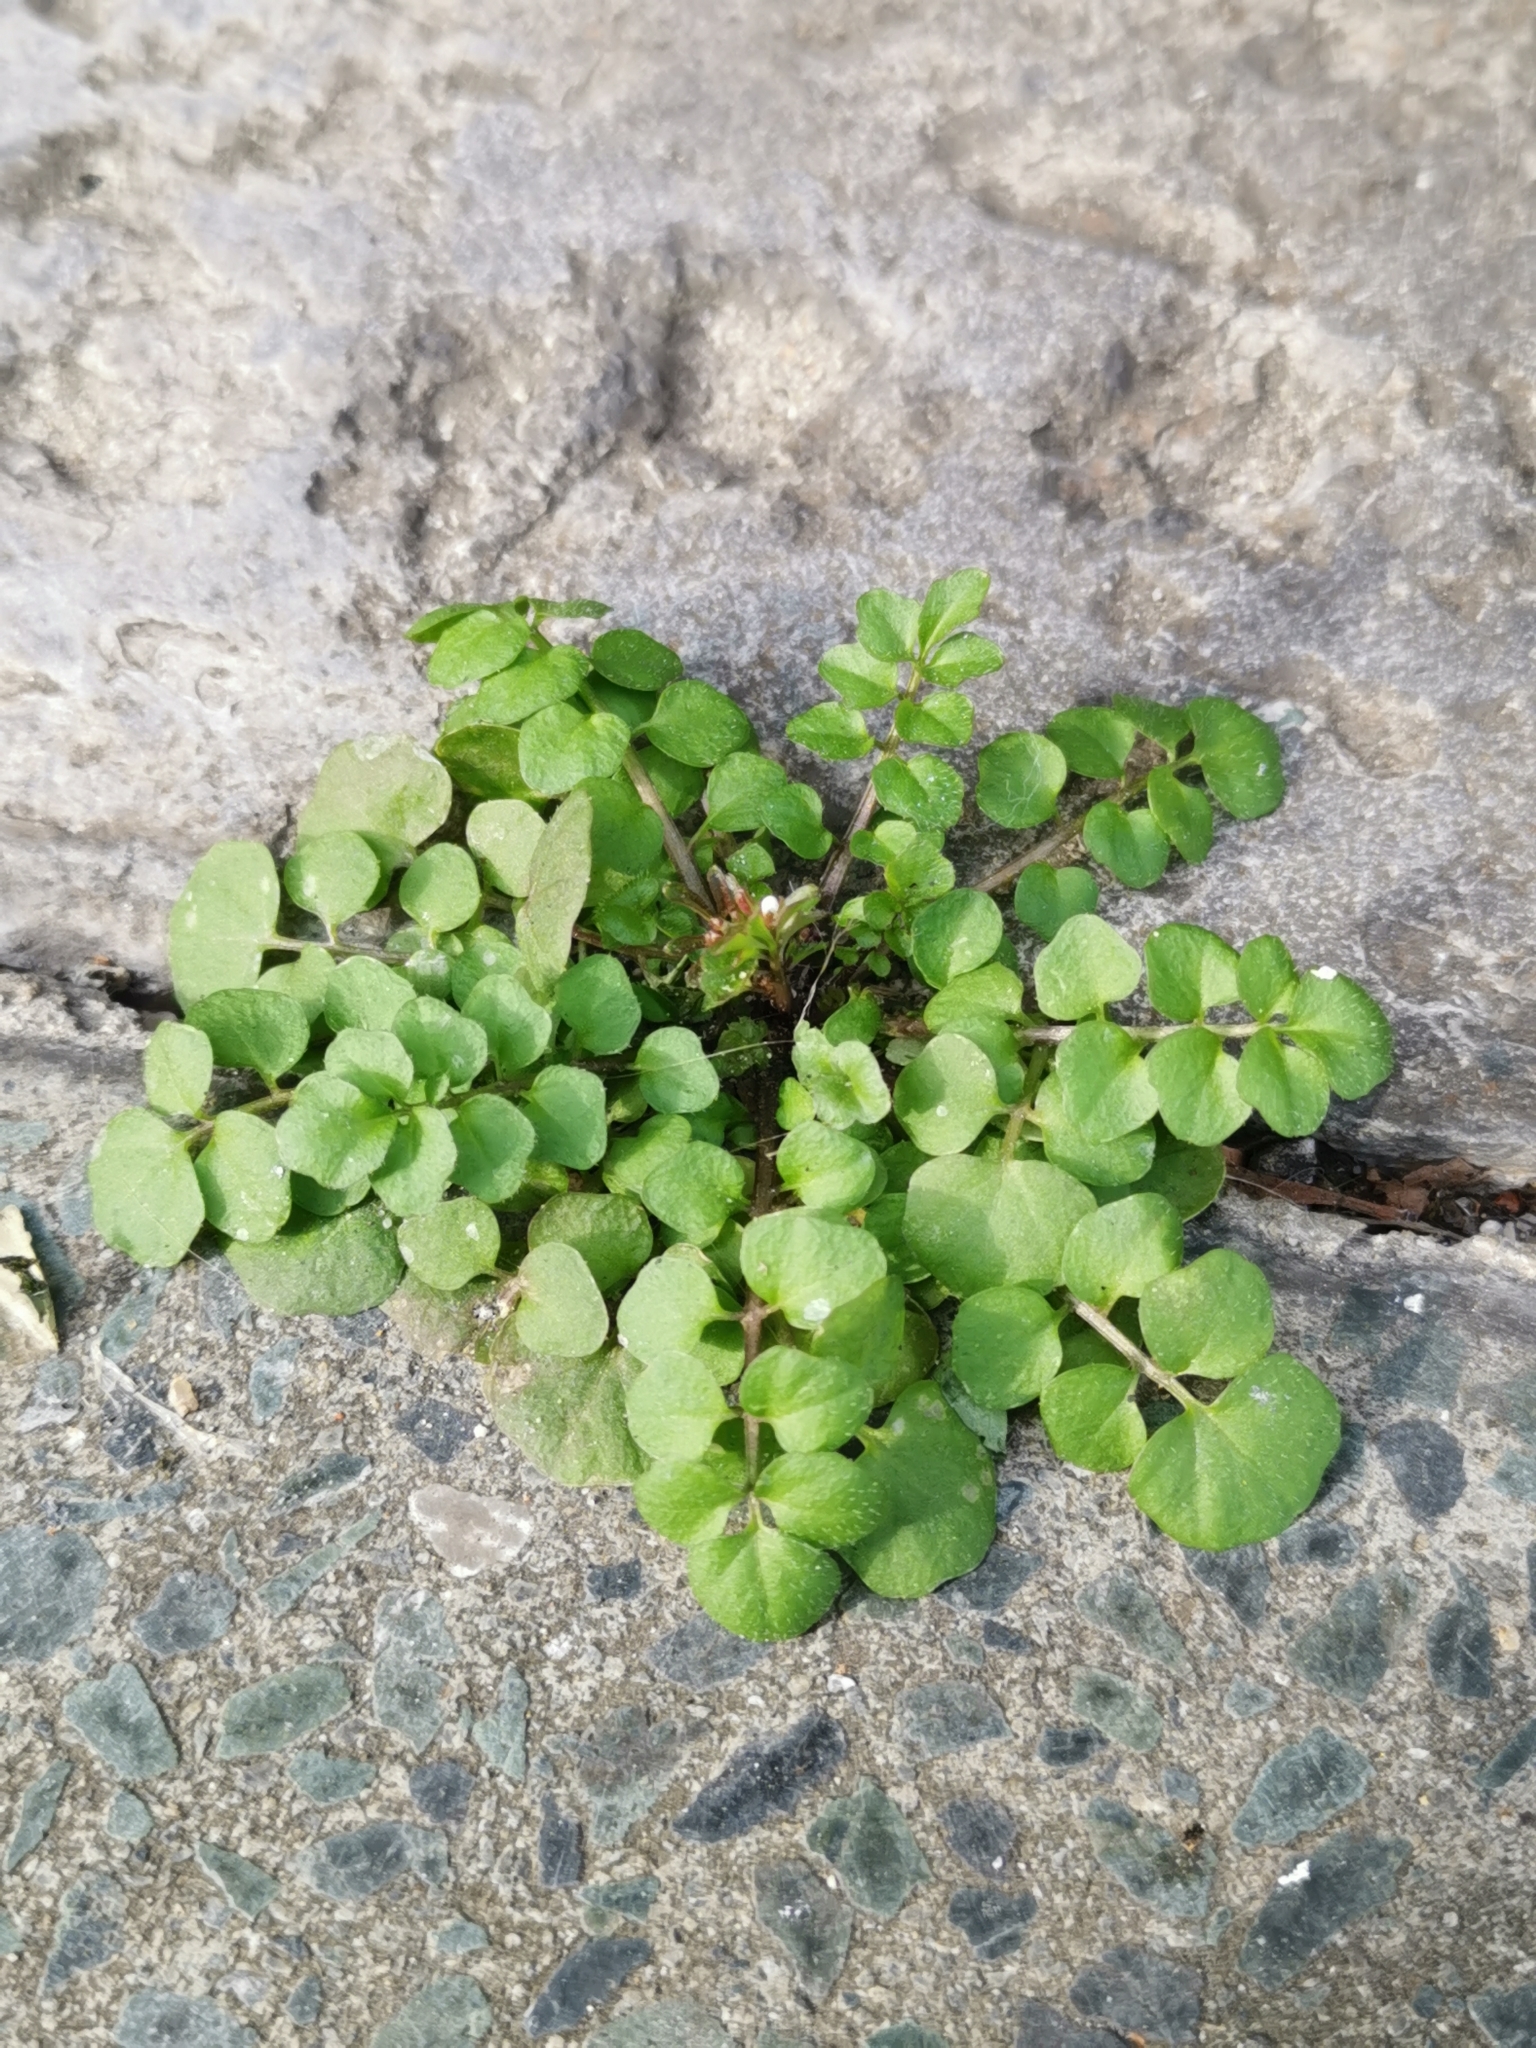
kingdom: Plantae
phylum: Tracheophyta
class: Magnoliopsida
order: Brassicales
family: Brassicaceae
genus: Cardamine
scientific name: Cardamine hirsuta
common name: Hairy bittercress
